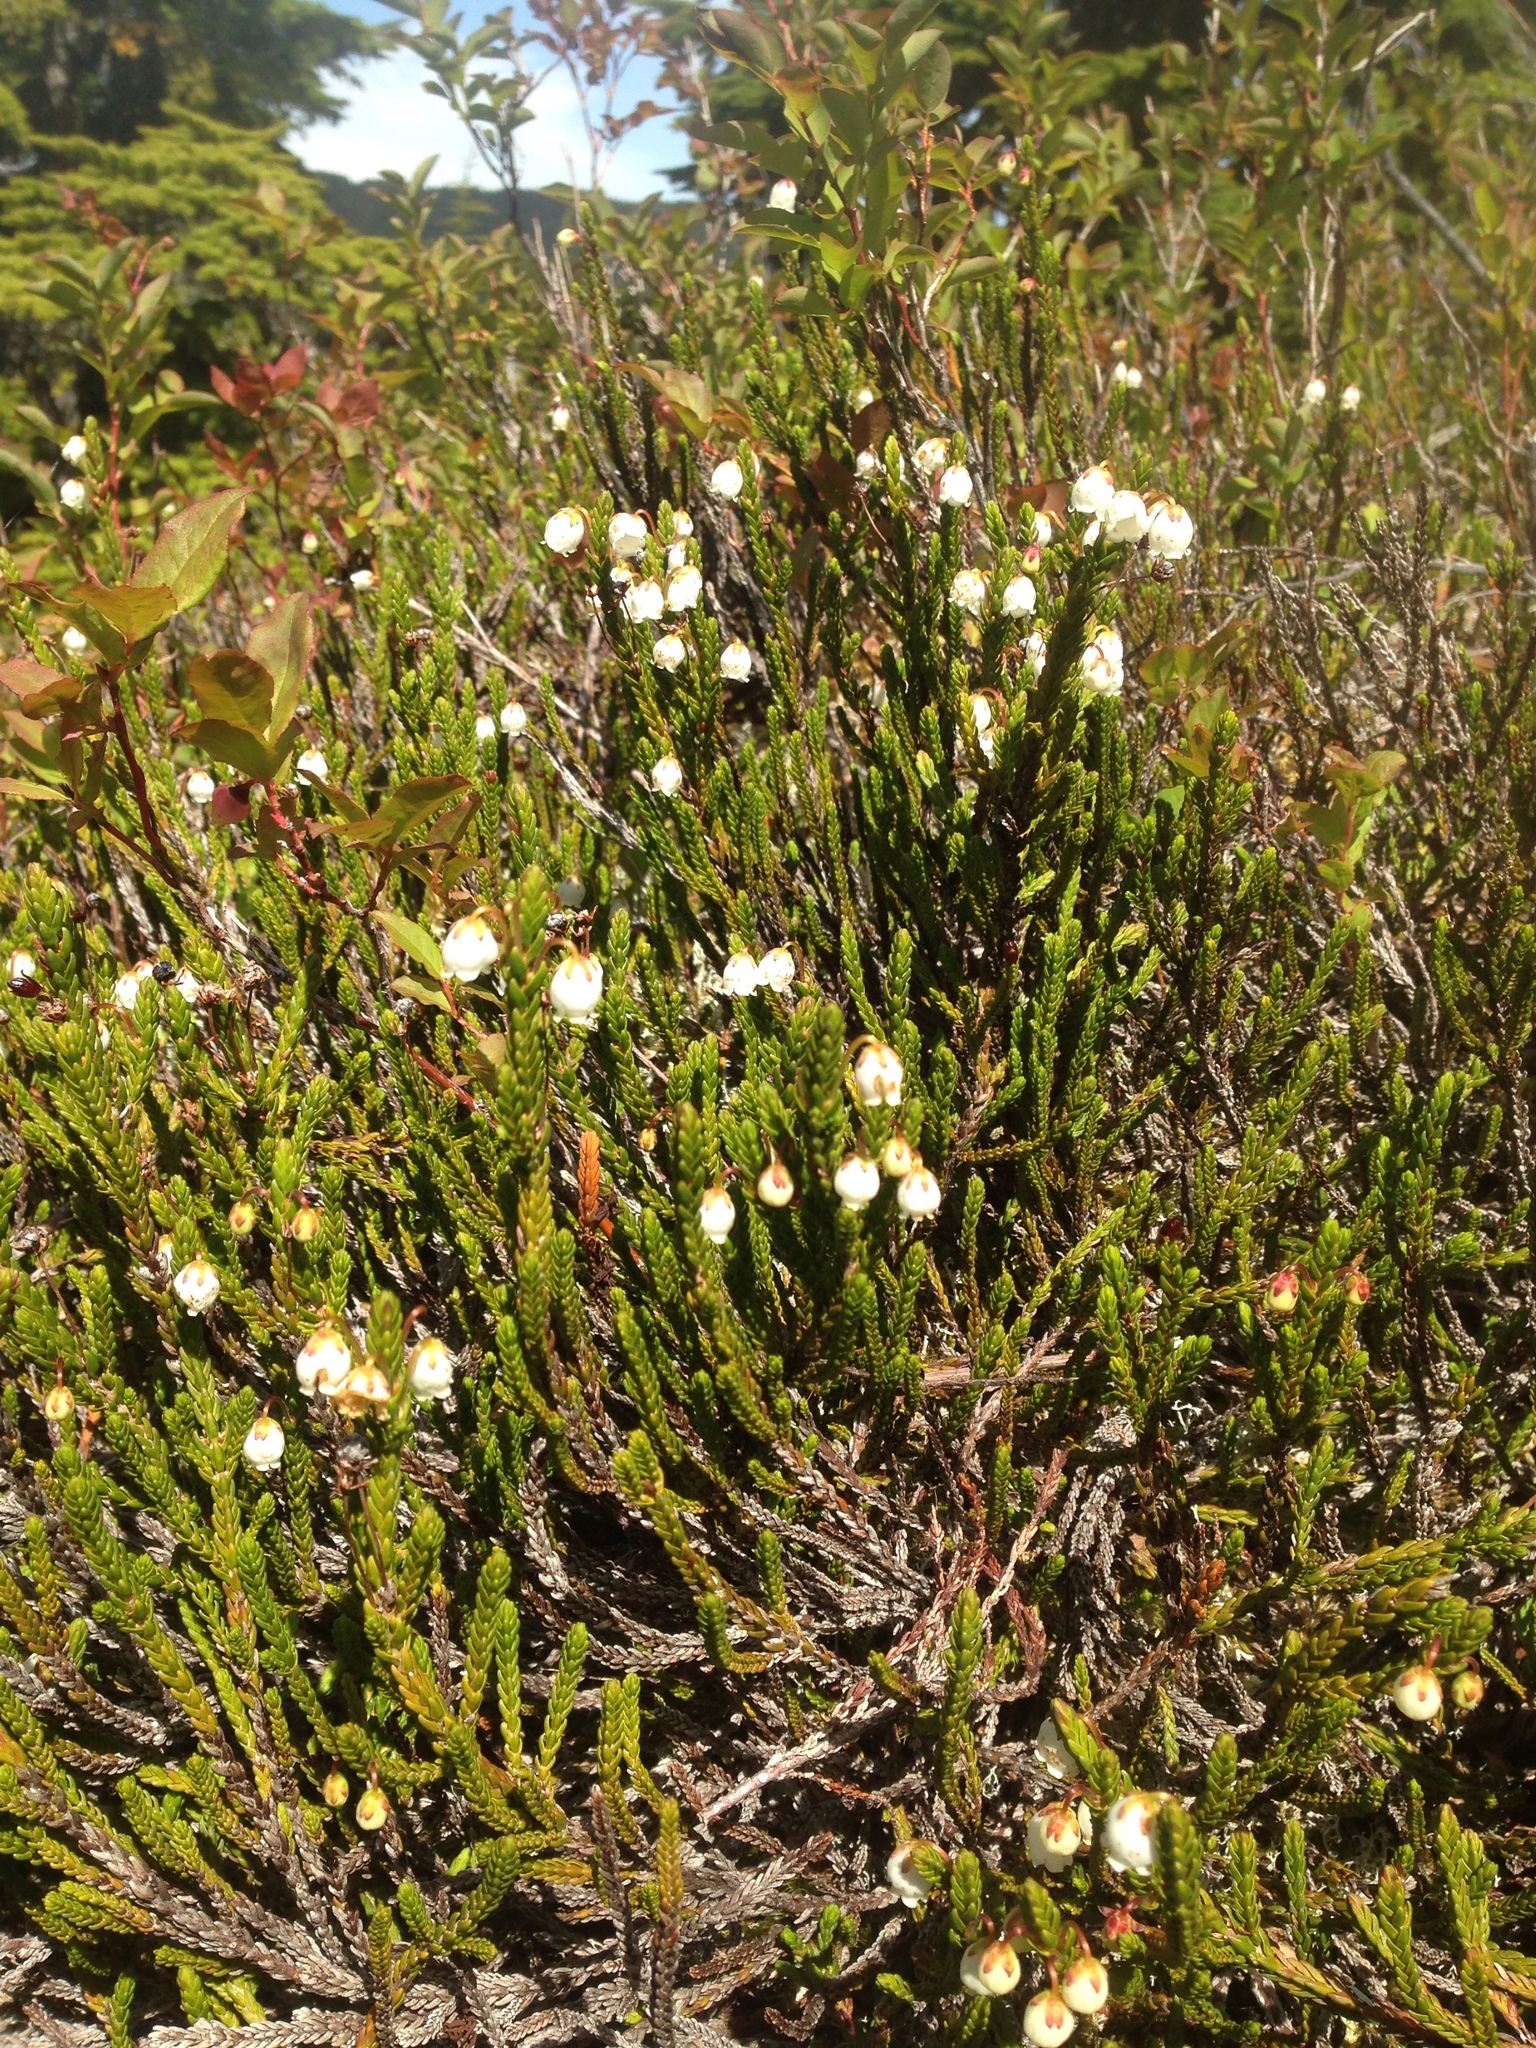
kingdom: Plantae
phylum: Tracheophyta
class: Magnoliopsida
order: Ericales
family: Ericaceae
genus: Cassiope
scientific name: Cassiope mertensiana
